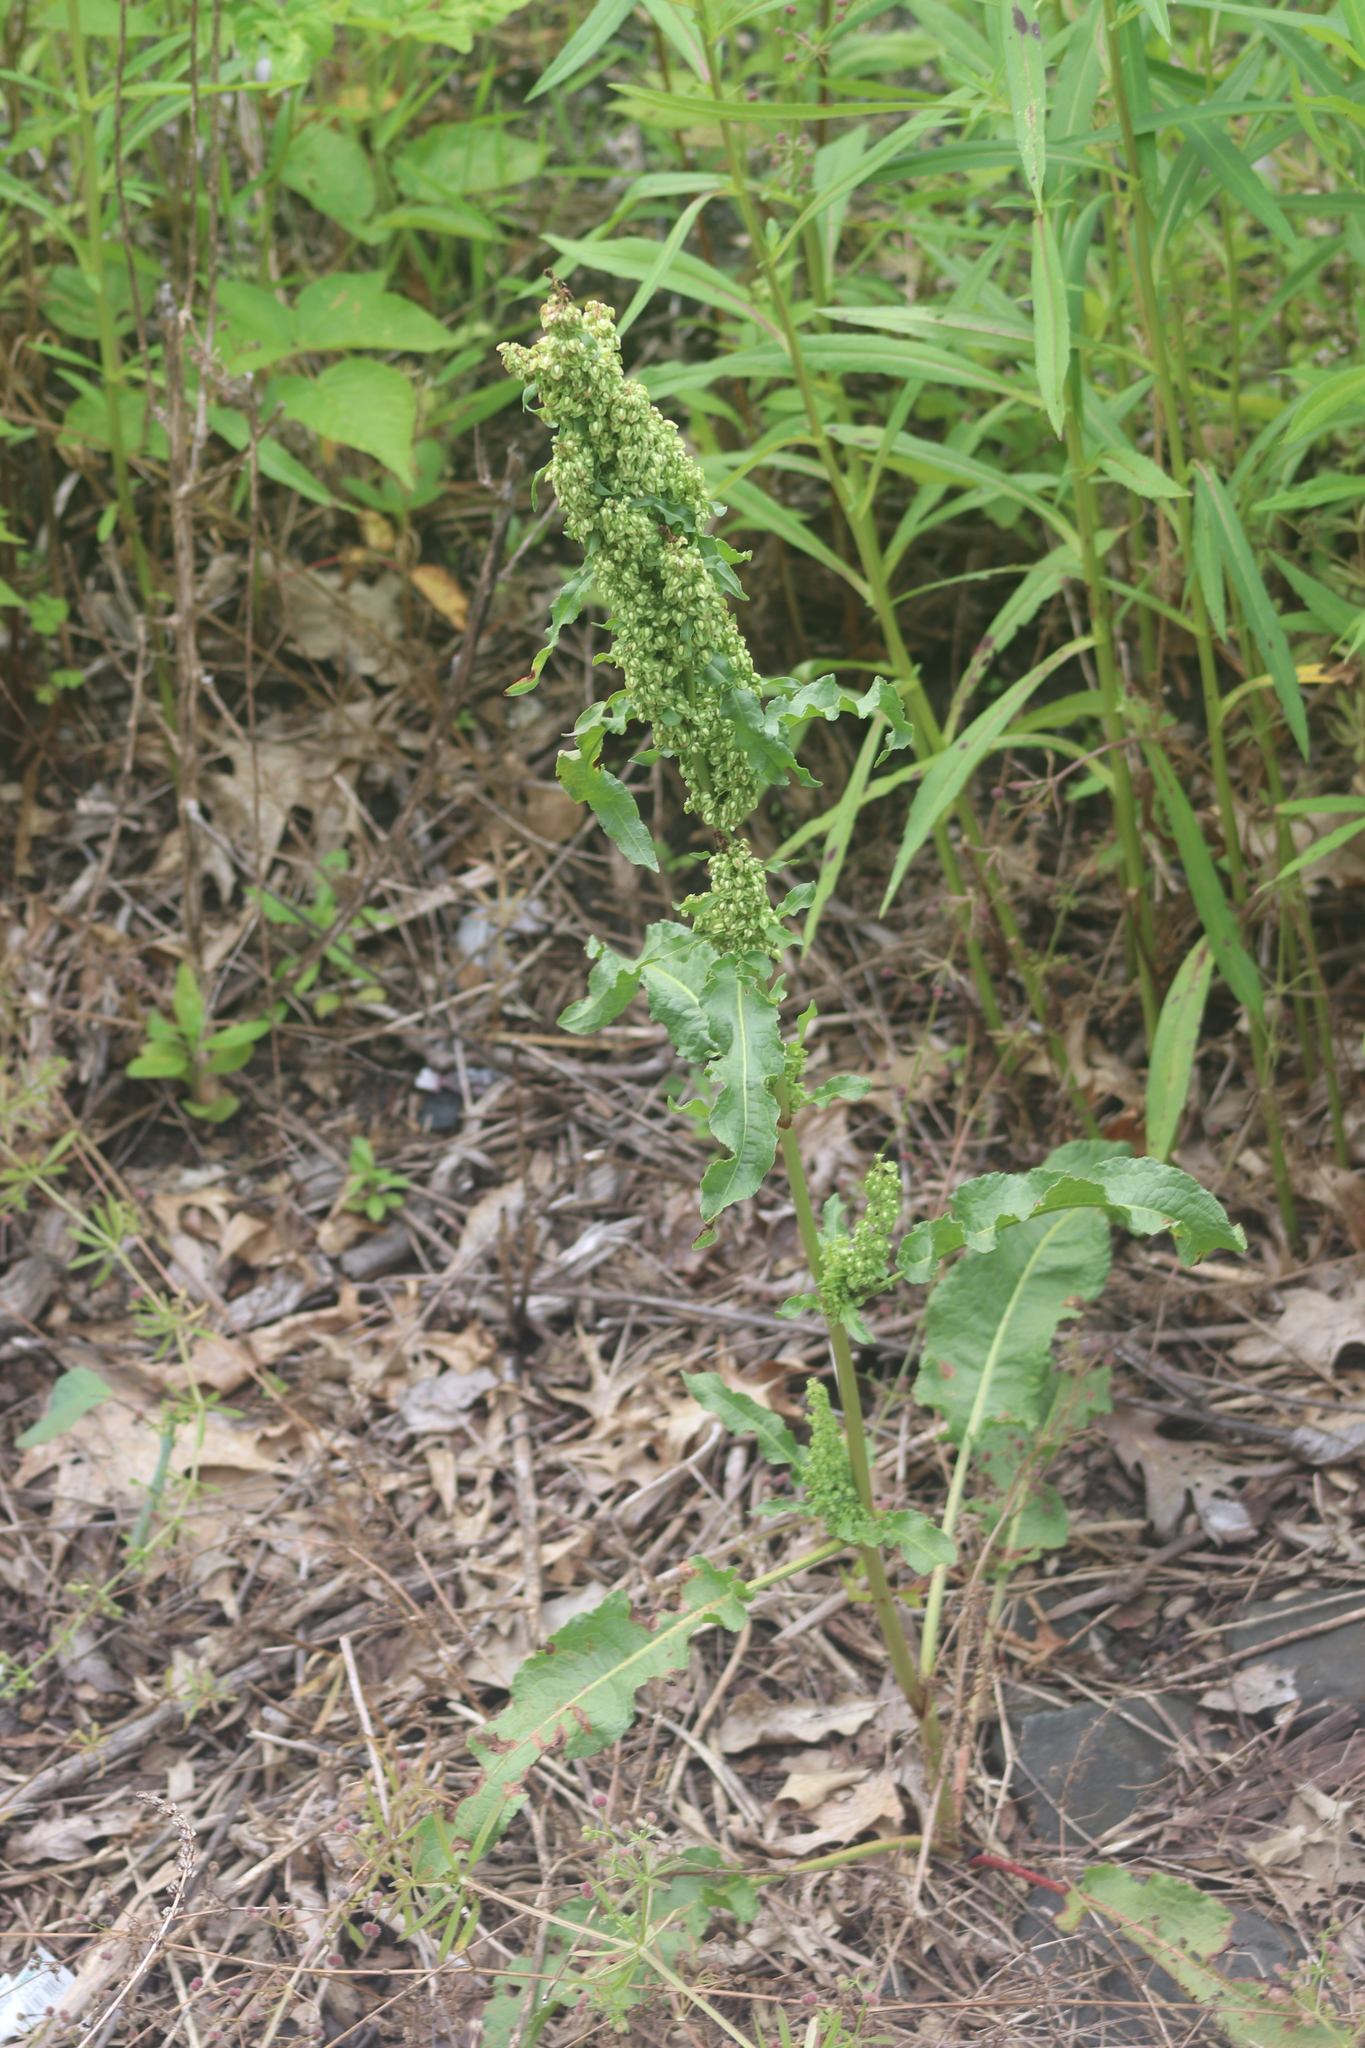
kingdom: Plantae
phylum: Tracheophyta
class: Magnoliopsida
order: Caryophyllales
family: Polygonaceae
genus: Rumex
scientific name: Rumex crispus
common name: Curled dock
